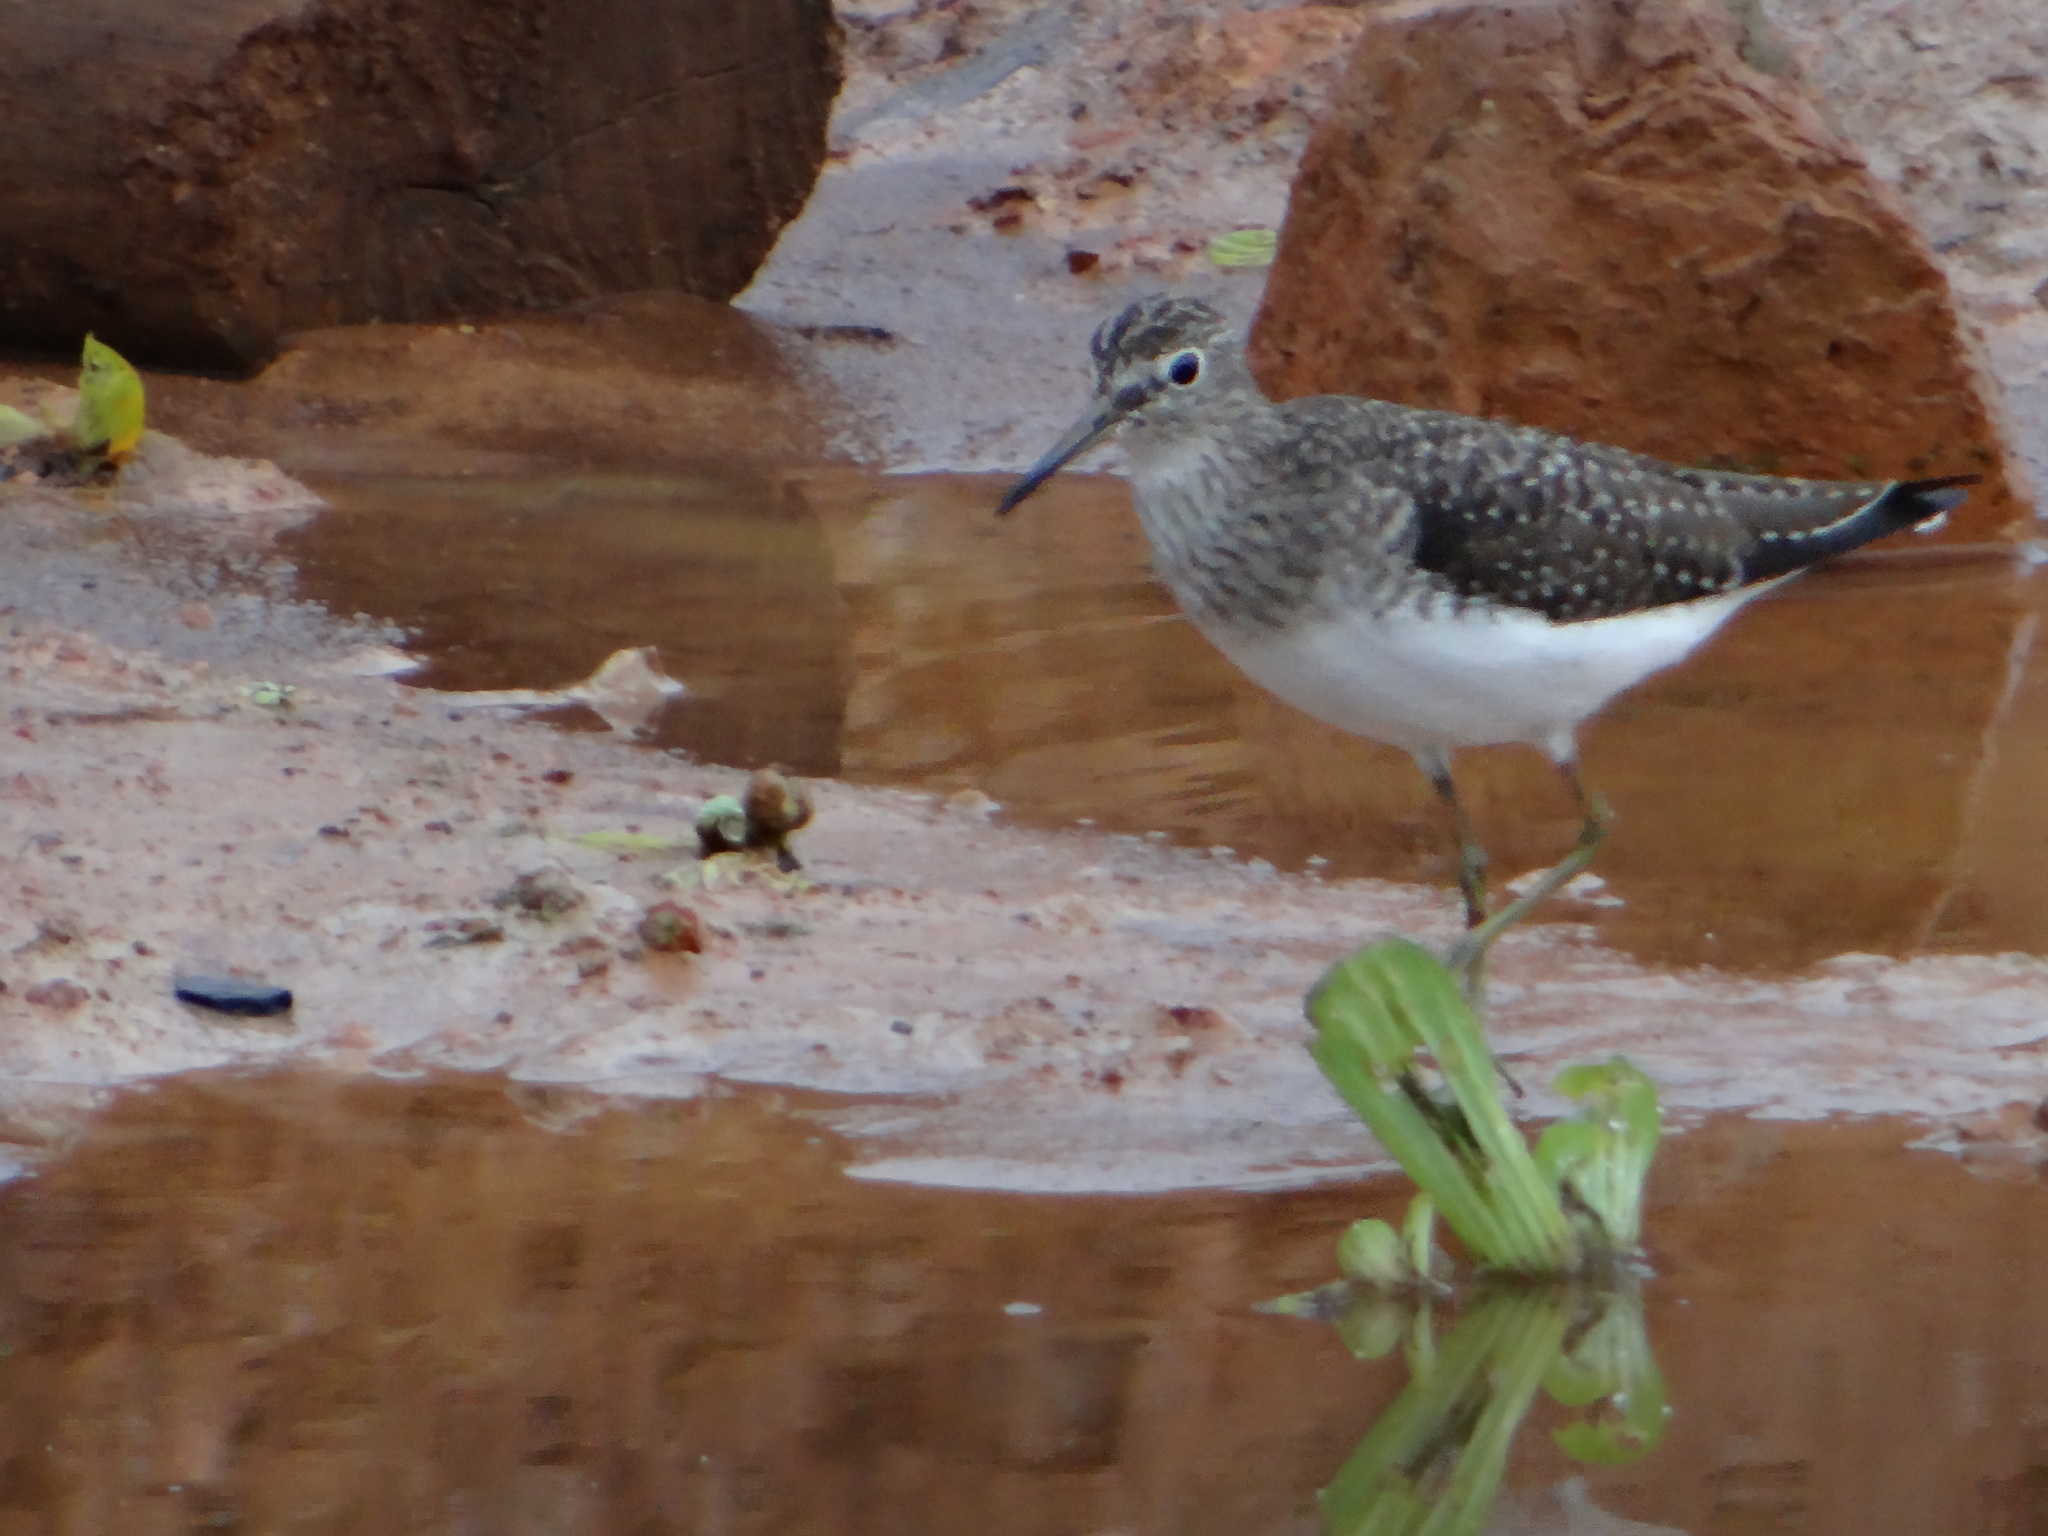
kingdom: Animalia
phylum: Chordata
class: Aves
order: Charadriiformes
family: Scolopacidae
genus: Tringa
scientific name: Tringa solitaria
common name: Solitary sandpiper
